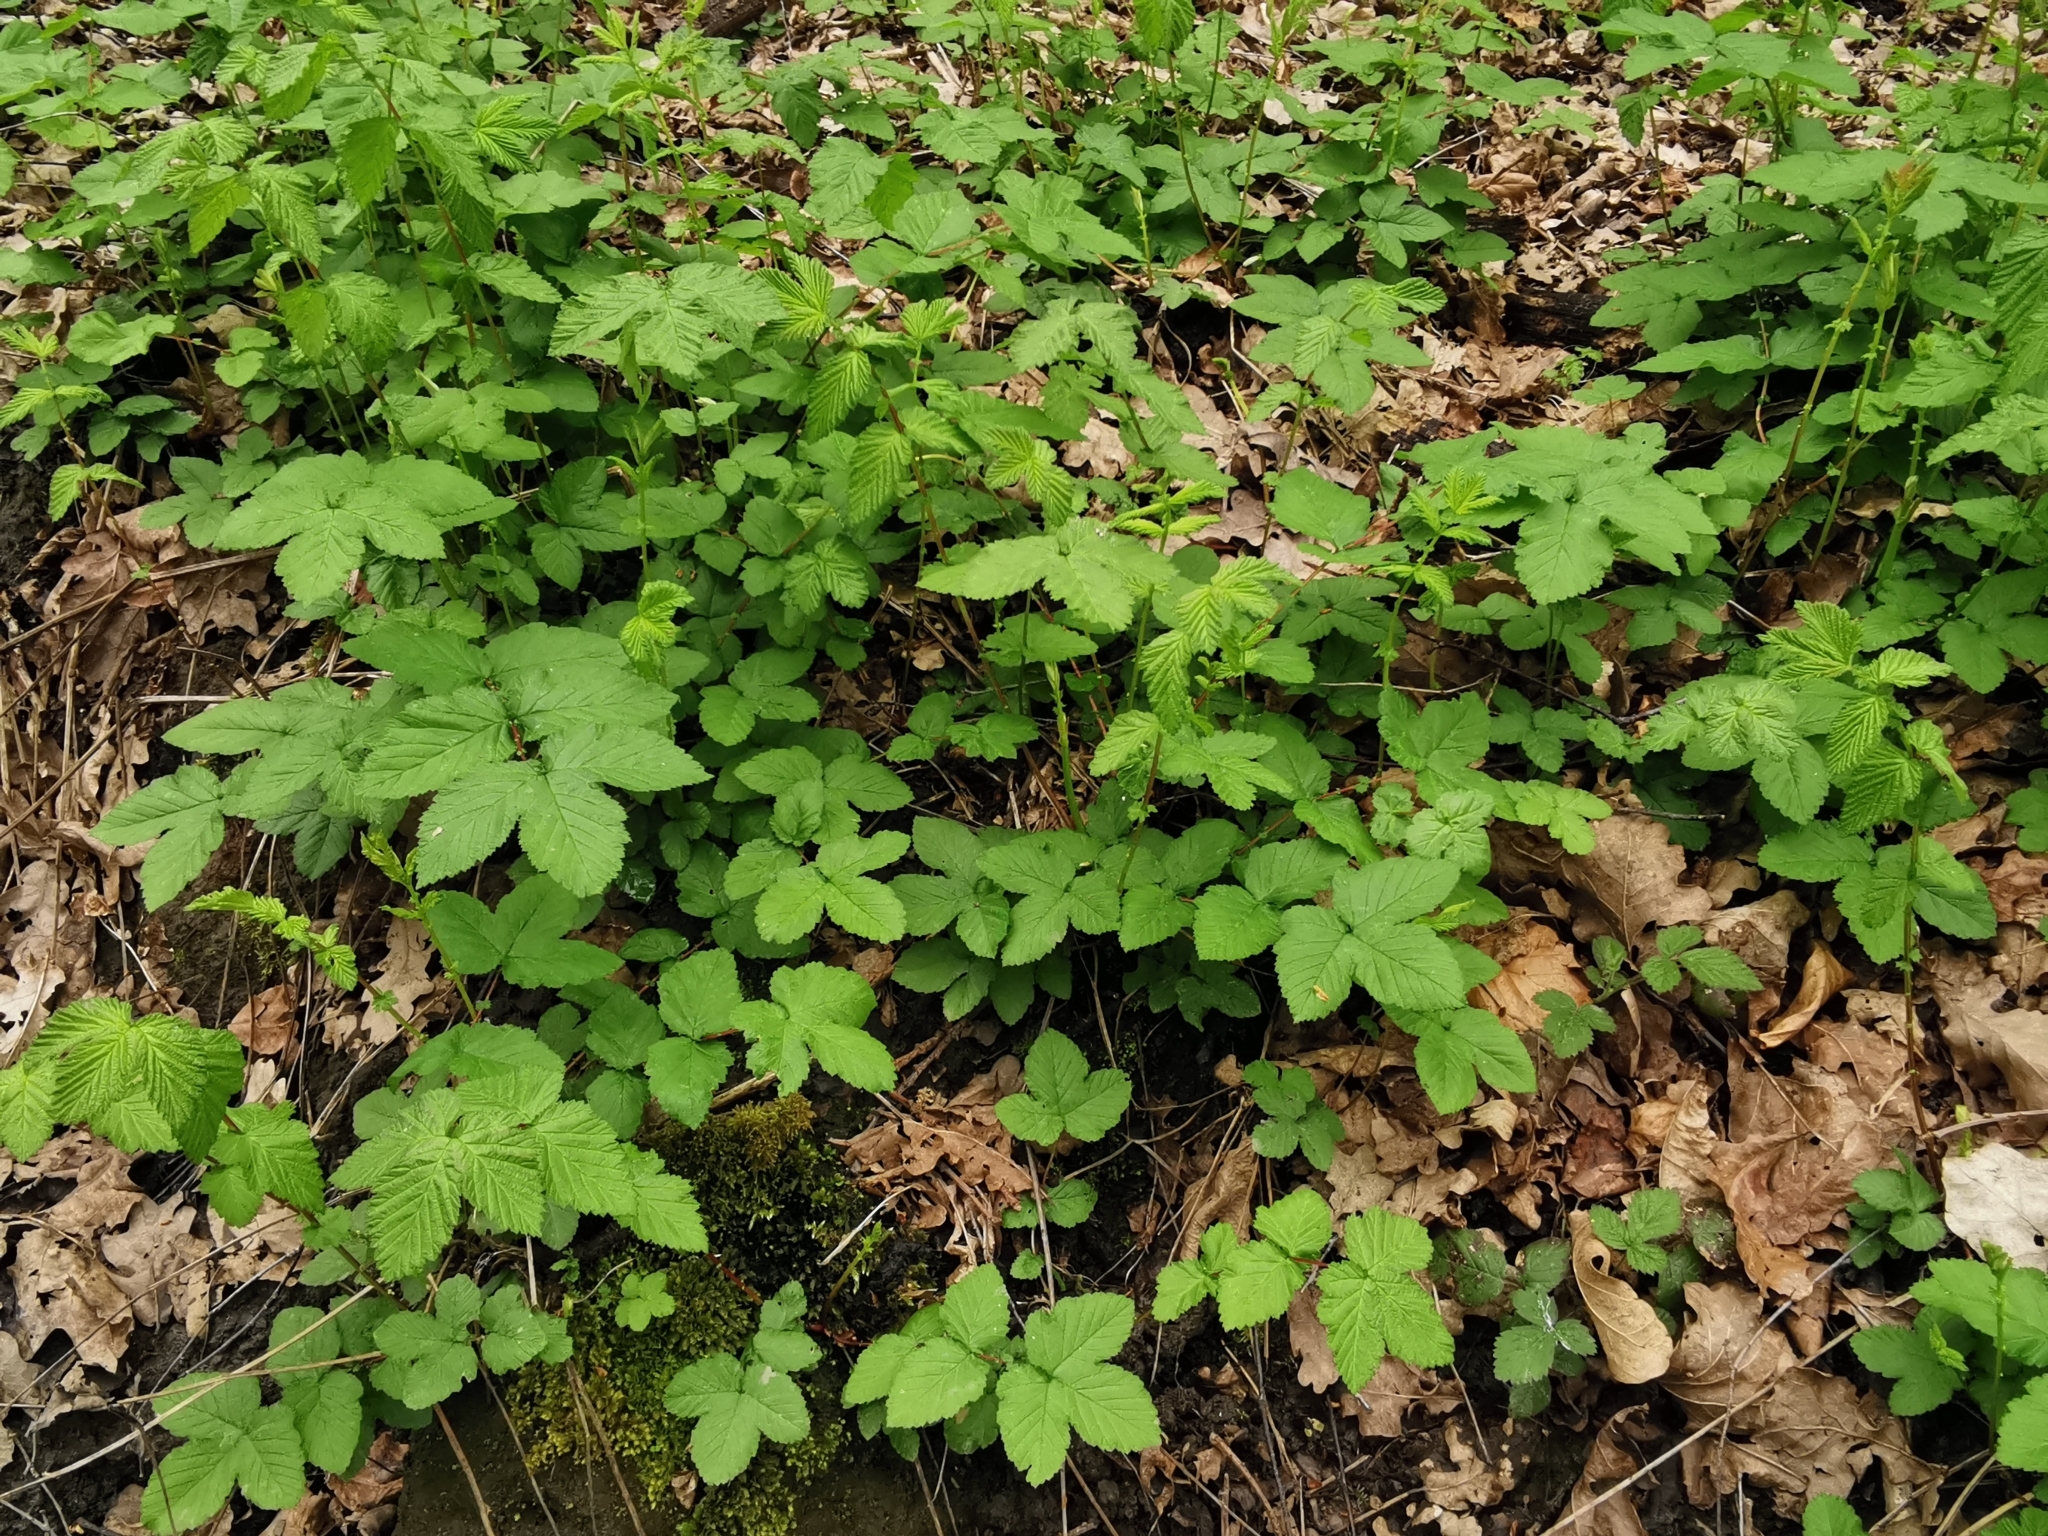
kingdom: Plantae
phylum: Tracheophyta
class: Magnoliopsida
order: Rosales
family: Rosaceae
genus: Filipendula
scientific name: Filipendula ulmaria
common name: Meadowsweet
